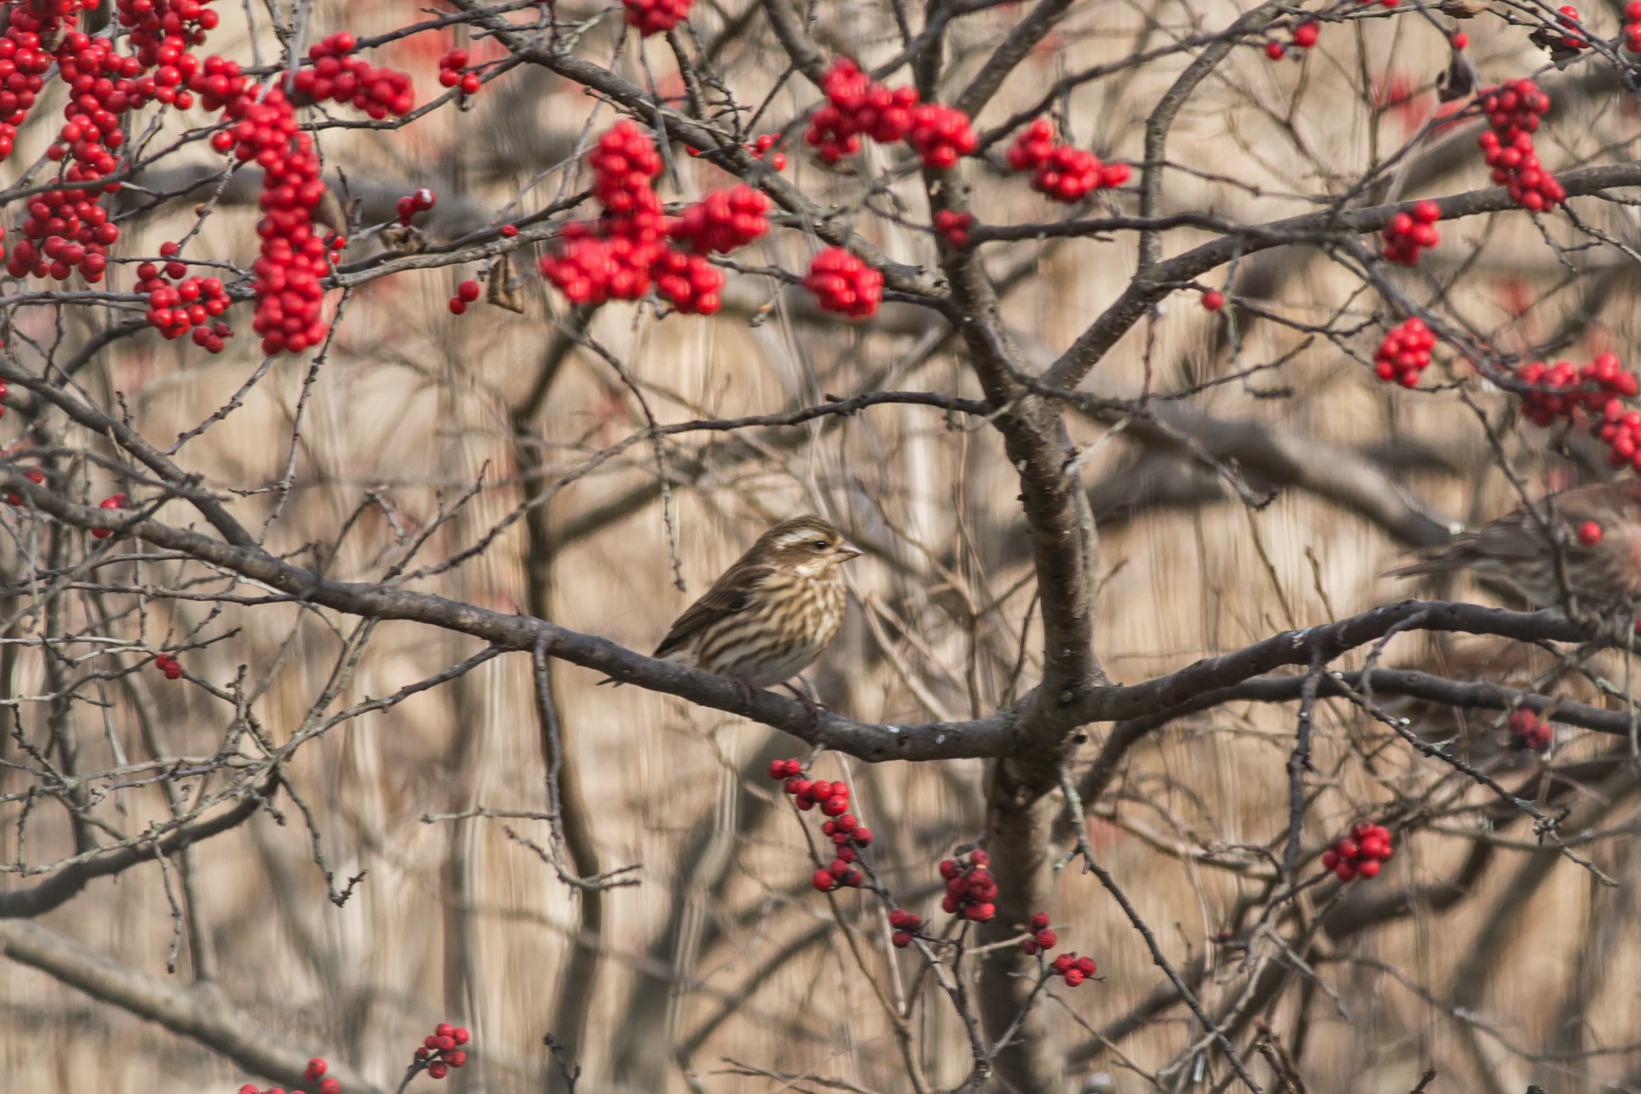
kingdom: Animalia
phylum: Chordata
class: Aves
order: Passeriformes
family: Fringillidae
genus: Haemorhous
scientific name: Haemorhous purpureus
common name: Purple finch
